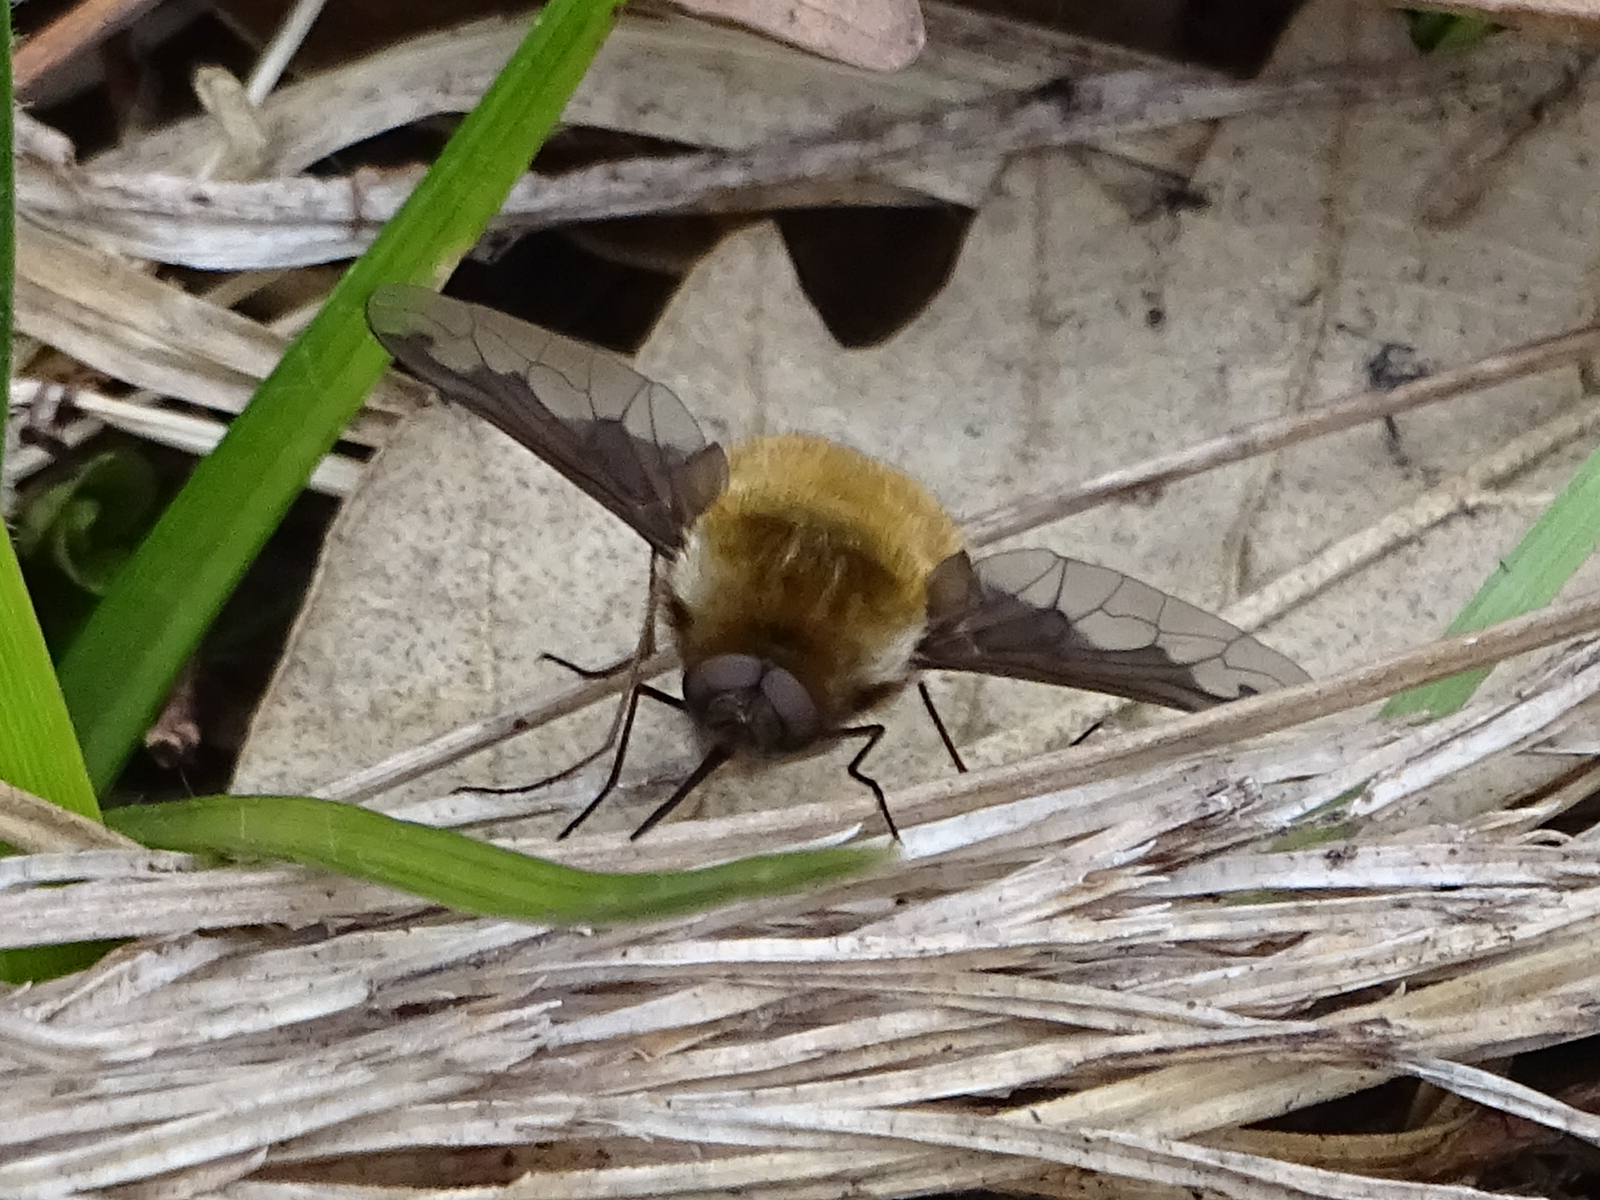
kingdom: Animalia
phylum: Arthropoda
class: Insecta
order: Diptera
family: Bombyliidae
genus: Bombylius
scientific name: Bombylius major
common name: Bee fly
